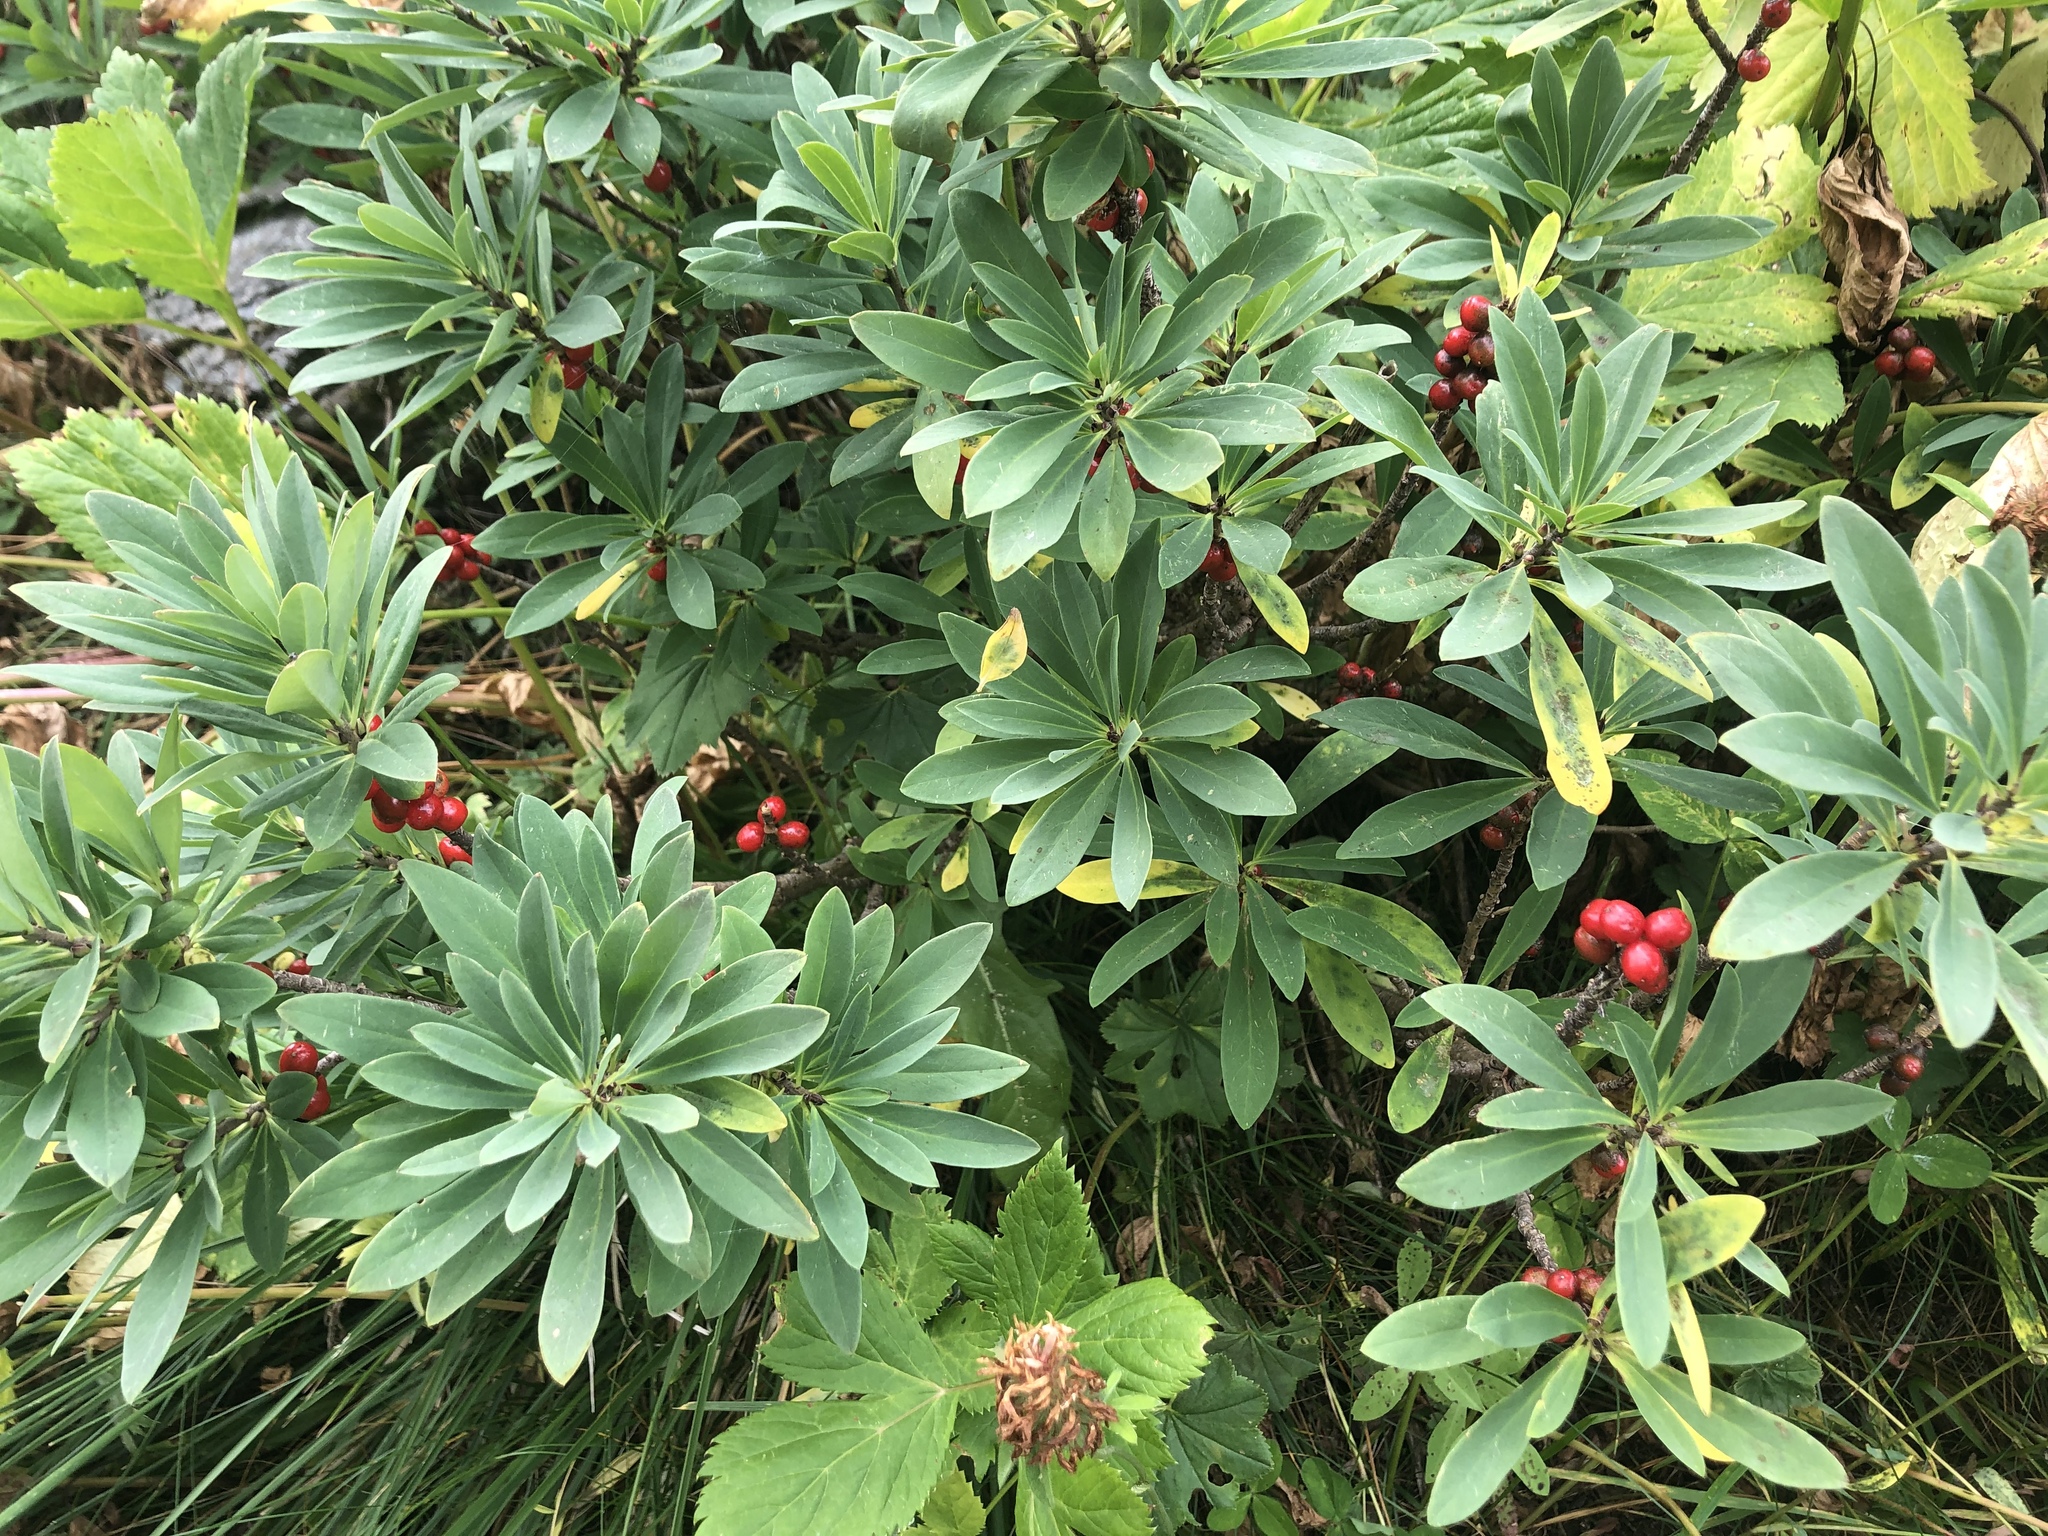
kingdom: Plantae
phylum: Tracheophyta
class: Magnoliopsida
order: Malvales
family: Thymelaeaceae
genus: Daphne
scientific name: Daphne mezereum
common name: Mezereon
